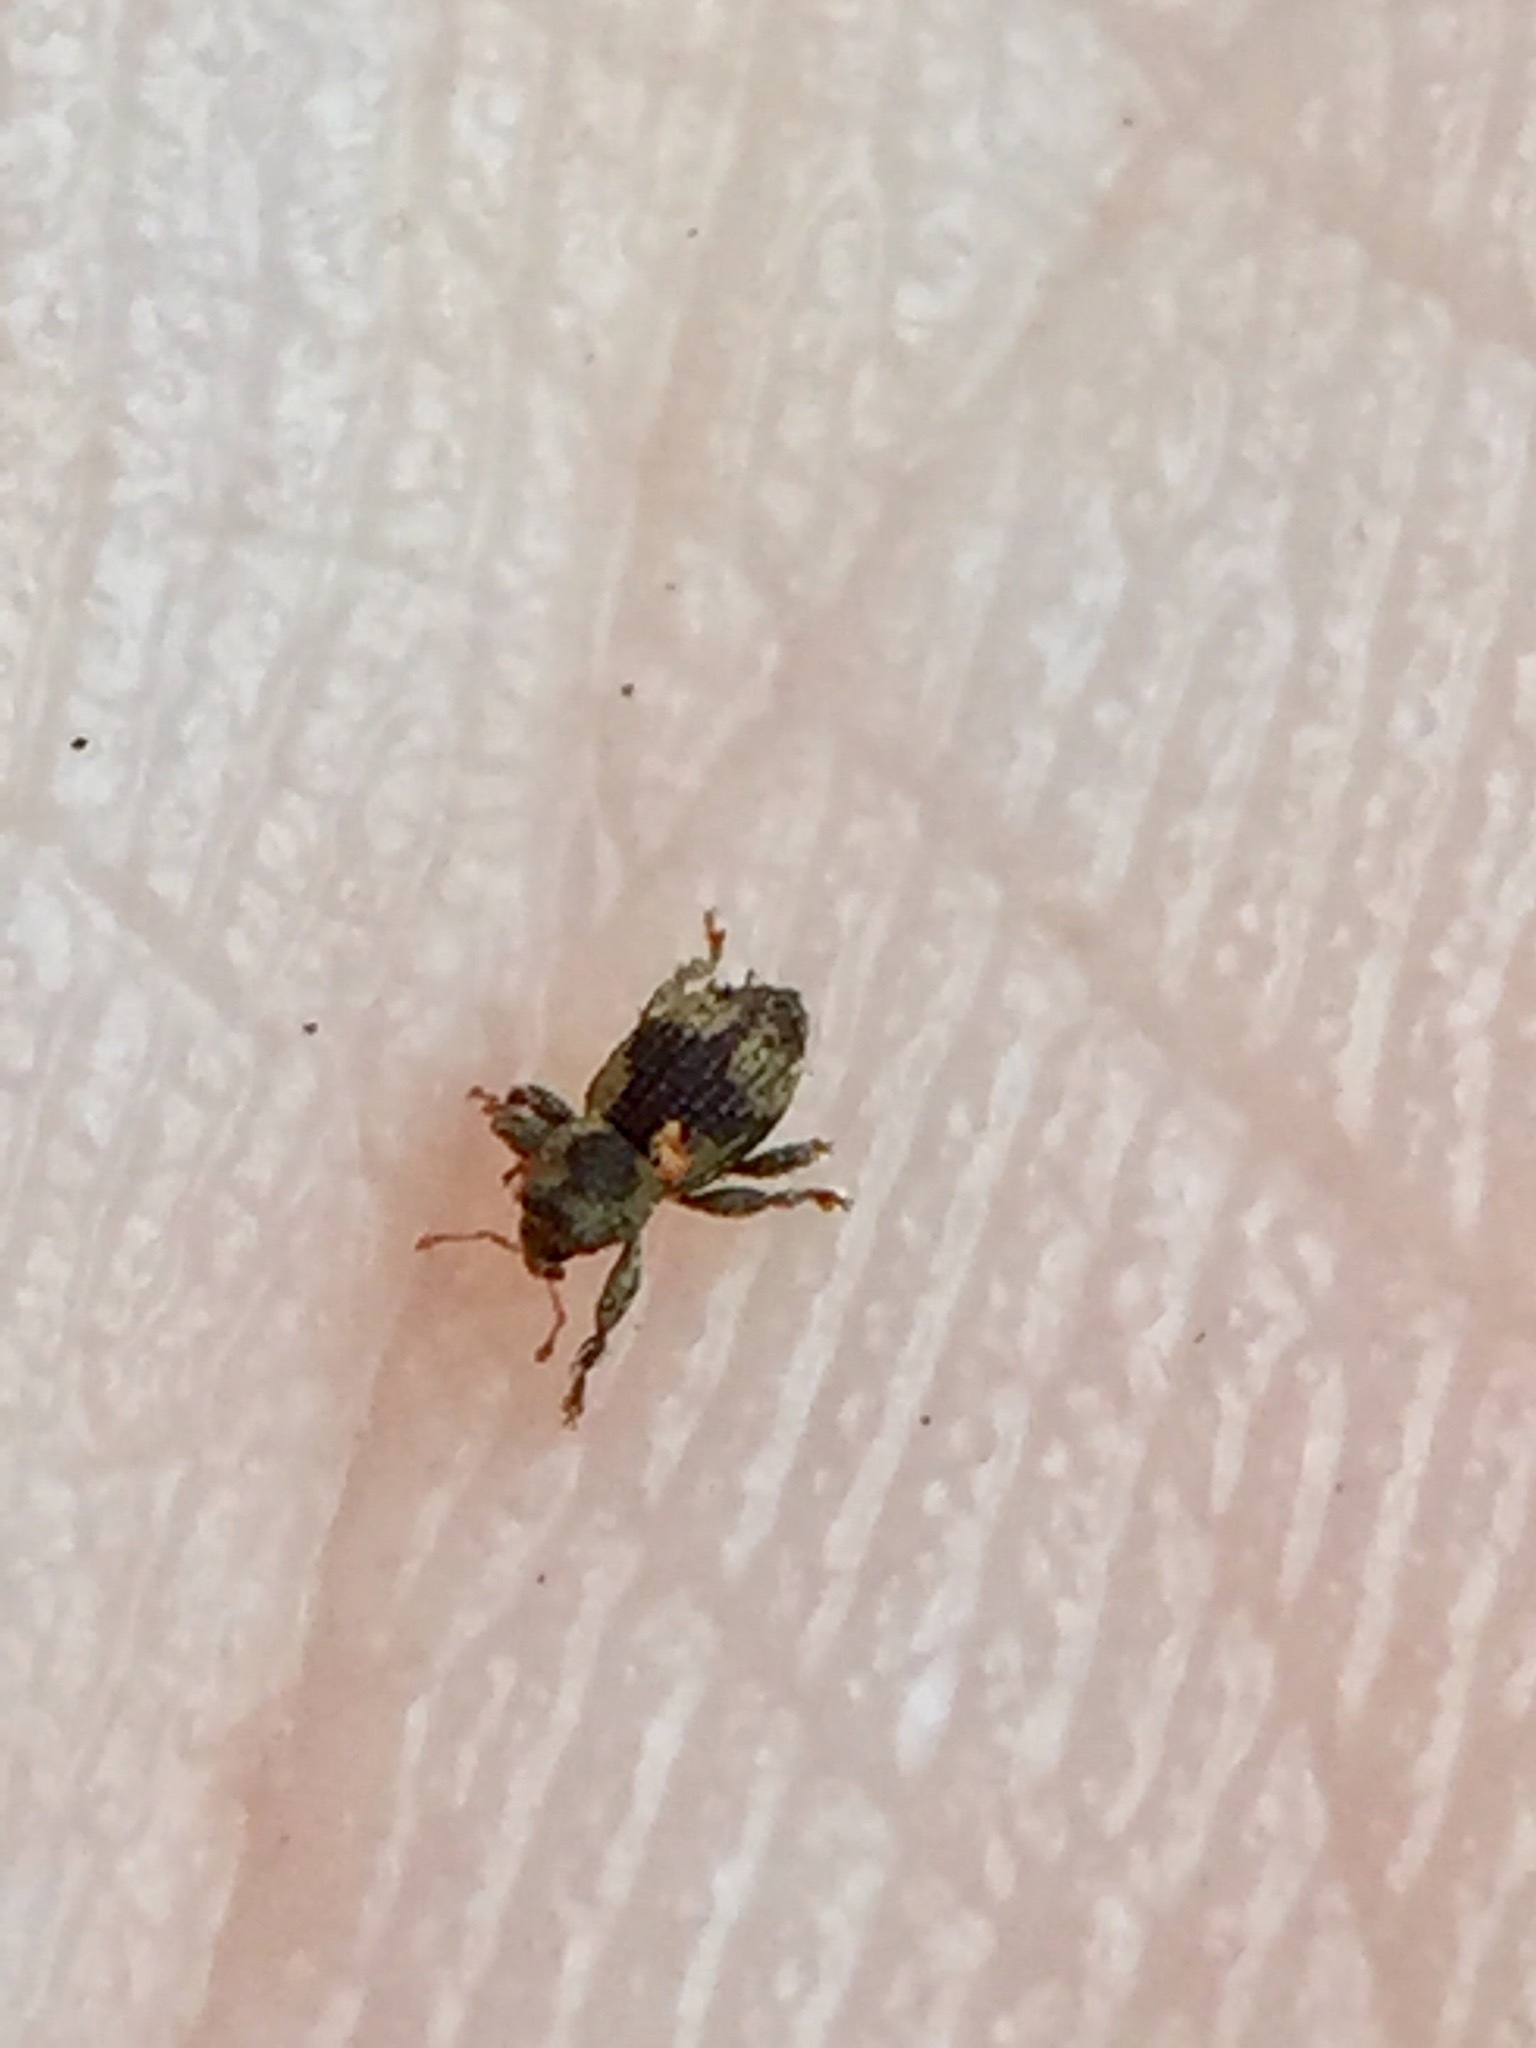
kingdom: Animalia
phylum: Arthropoda
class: Insecta
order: Coleoptera
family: Curculionidae
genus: Notacalles
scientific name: Notacalles
